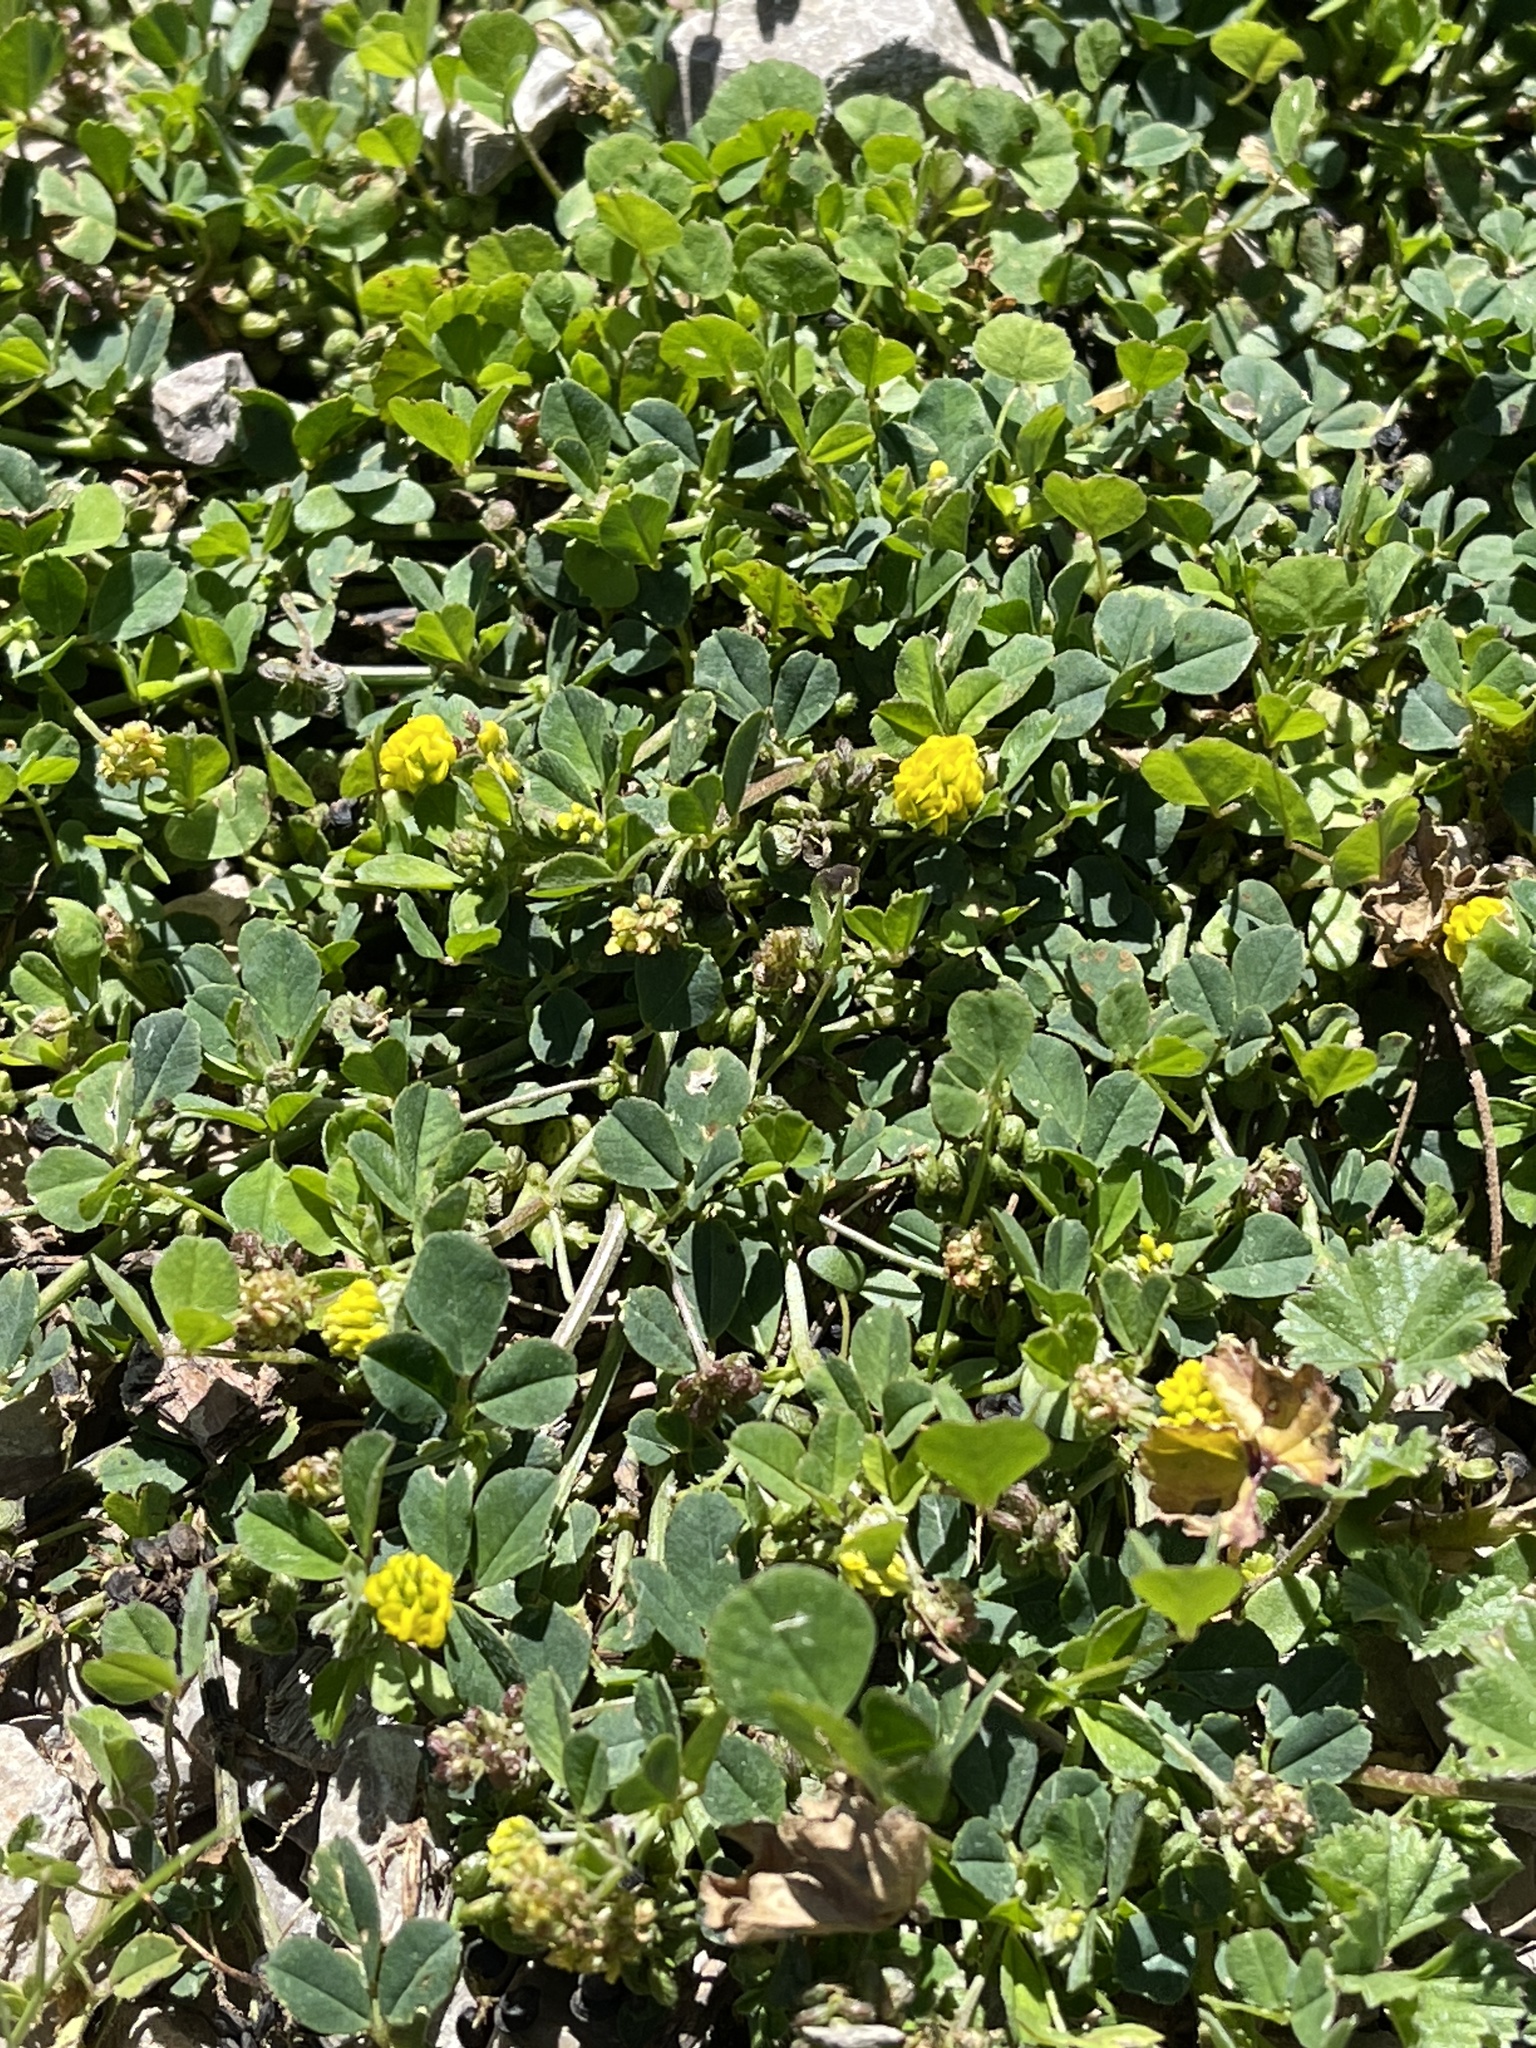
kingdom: Plantae
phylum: Tracheophyta
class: Magnoliopsida
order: Fabales
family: Fabaceae
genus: Medicago
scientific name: Medicago lupulina
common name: Black medick
